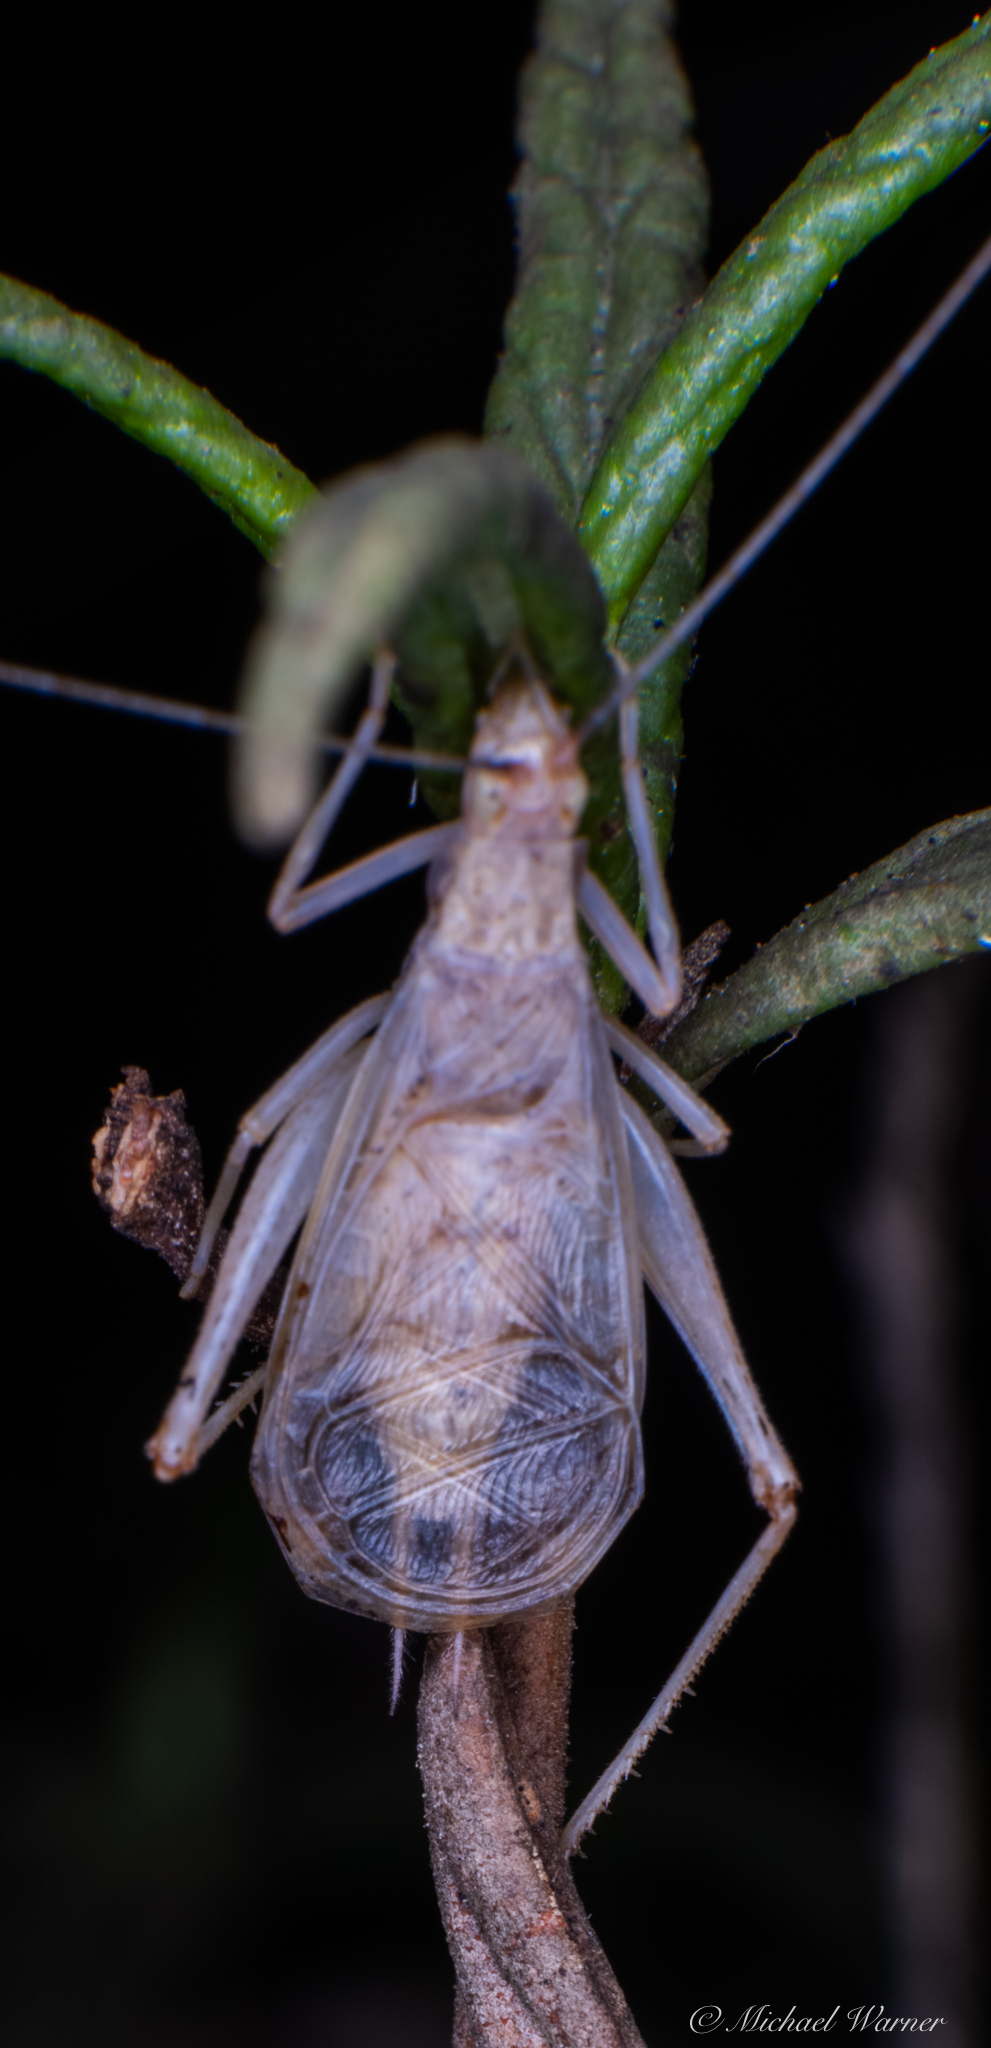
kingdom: Animalia
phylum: Arthropoda
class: Insecta
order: Orthoptera
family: Gryllidae
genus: Oecanthus
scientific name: Oecanthus californicus
